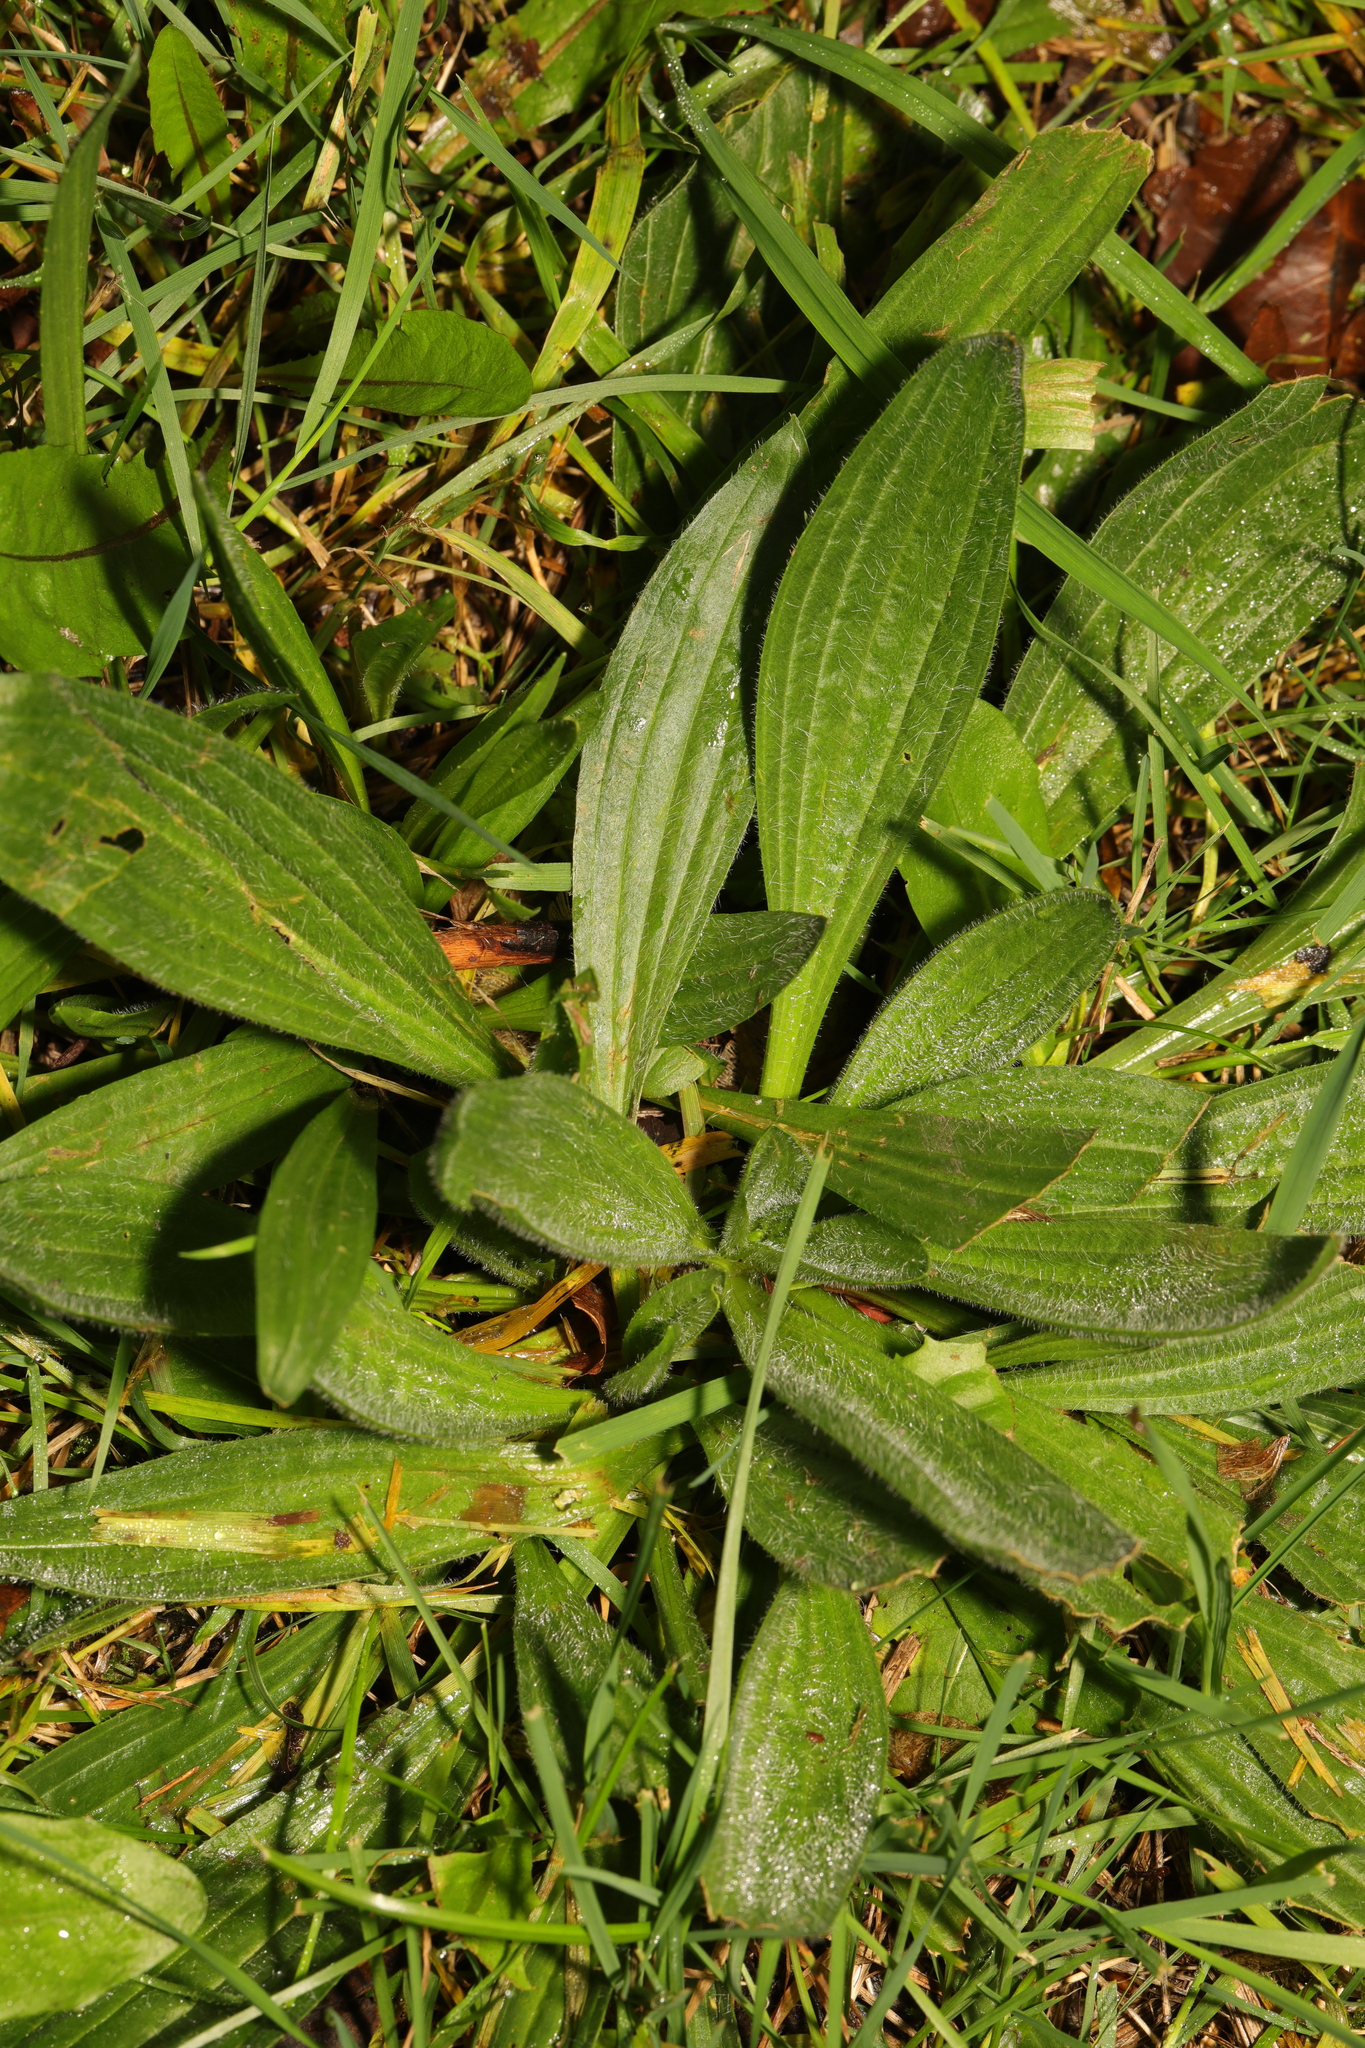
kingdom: Plantae
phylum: Tracheophyta
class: Magnoliopsida
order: Lamiales
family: Plantaginaceae
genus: Plantago
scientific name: Plantago lanceolata
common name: Ribwort plantain
